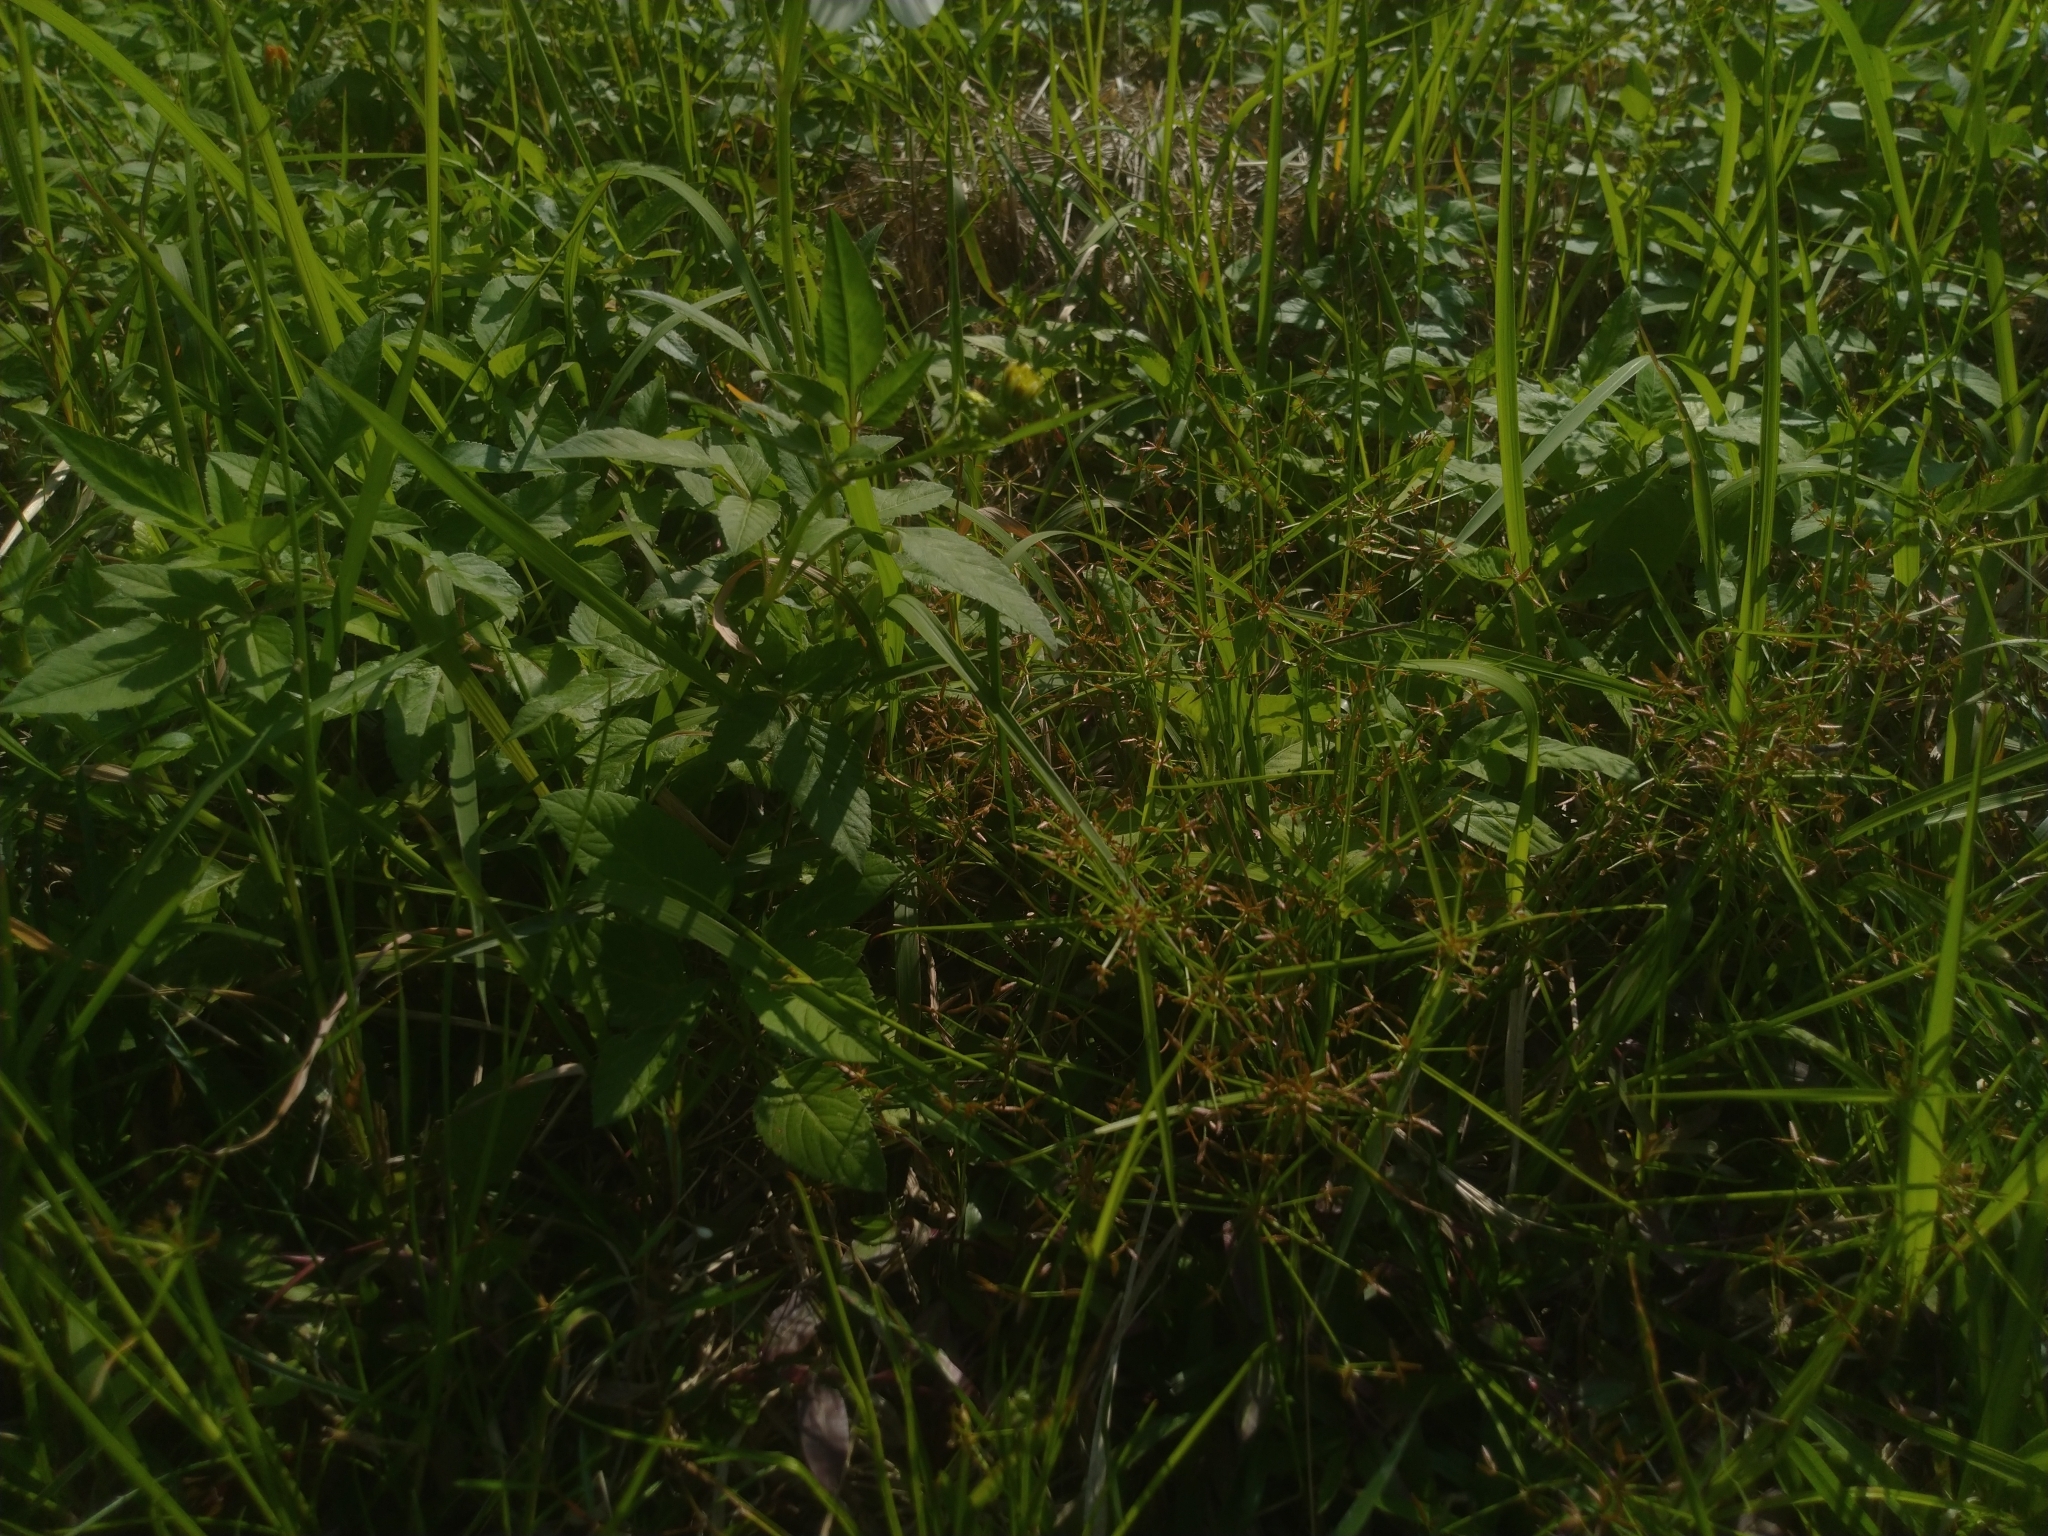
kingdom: Plantae
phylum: Tracheophyta
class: Liliopsida
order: Poales
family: Cyperaceae
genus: Cyperus
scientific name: Cyperus haspan
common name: Haspan flatsedge
